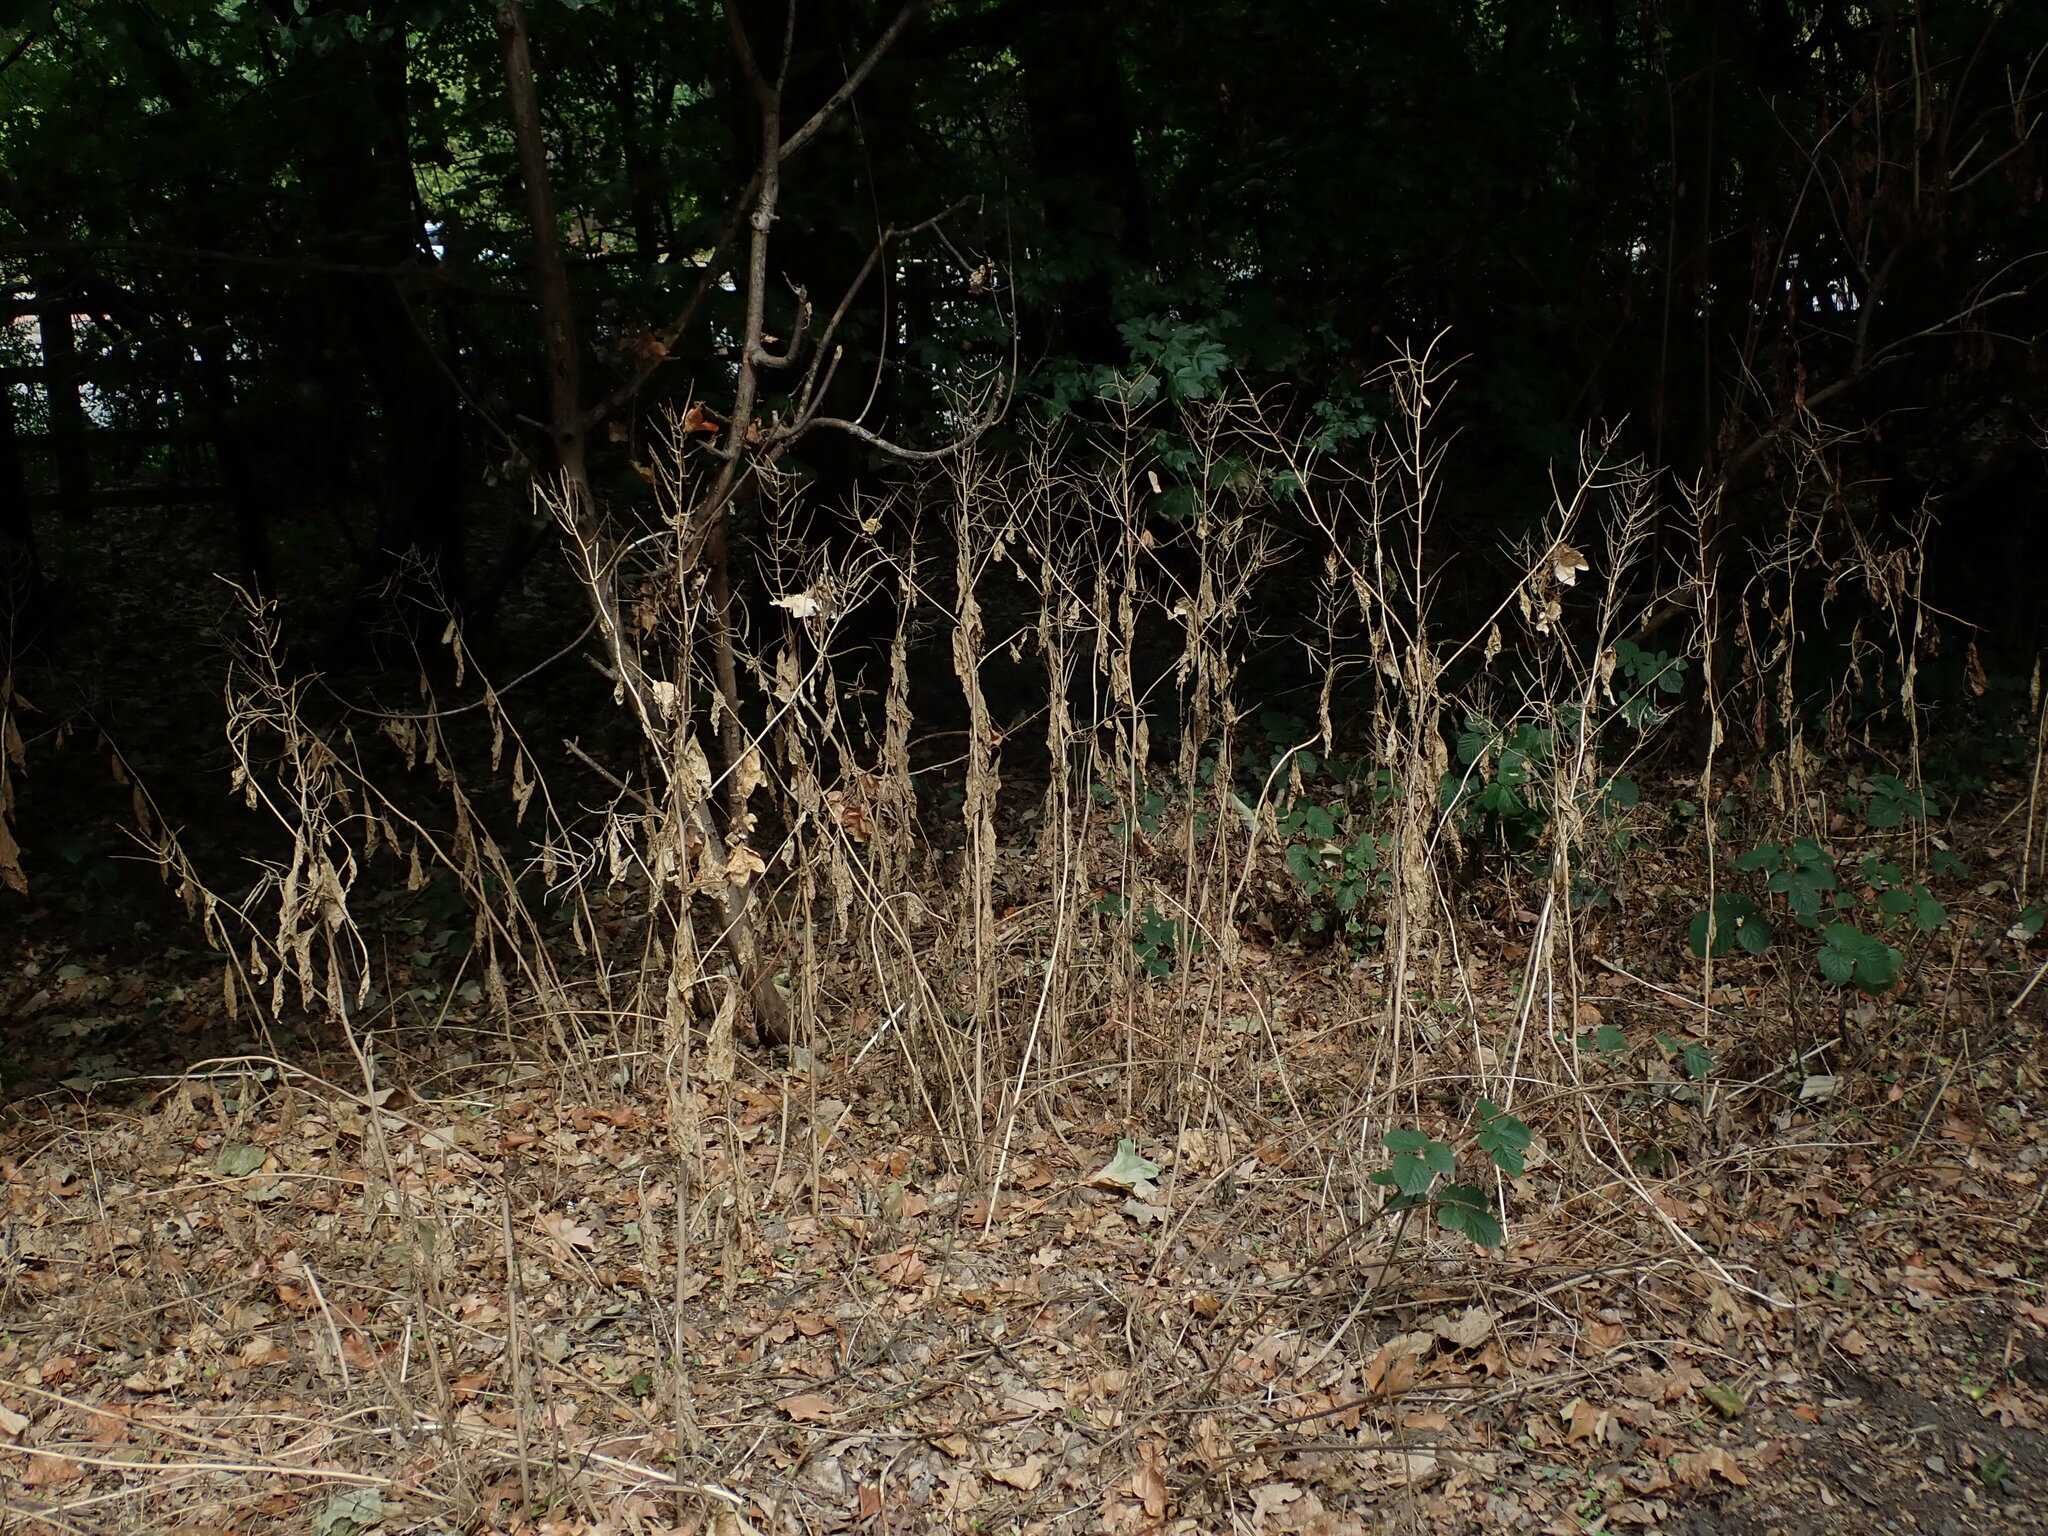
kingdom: Plantae
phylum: Tracheophyta
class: Magnoliopsida
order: Brassicales
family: Brassicaceae
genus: Alliaria
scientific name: Alliaria petiolata
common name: Garlic mustard
